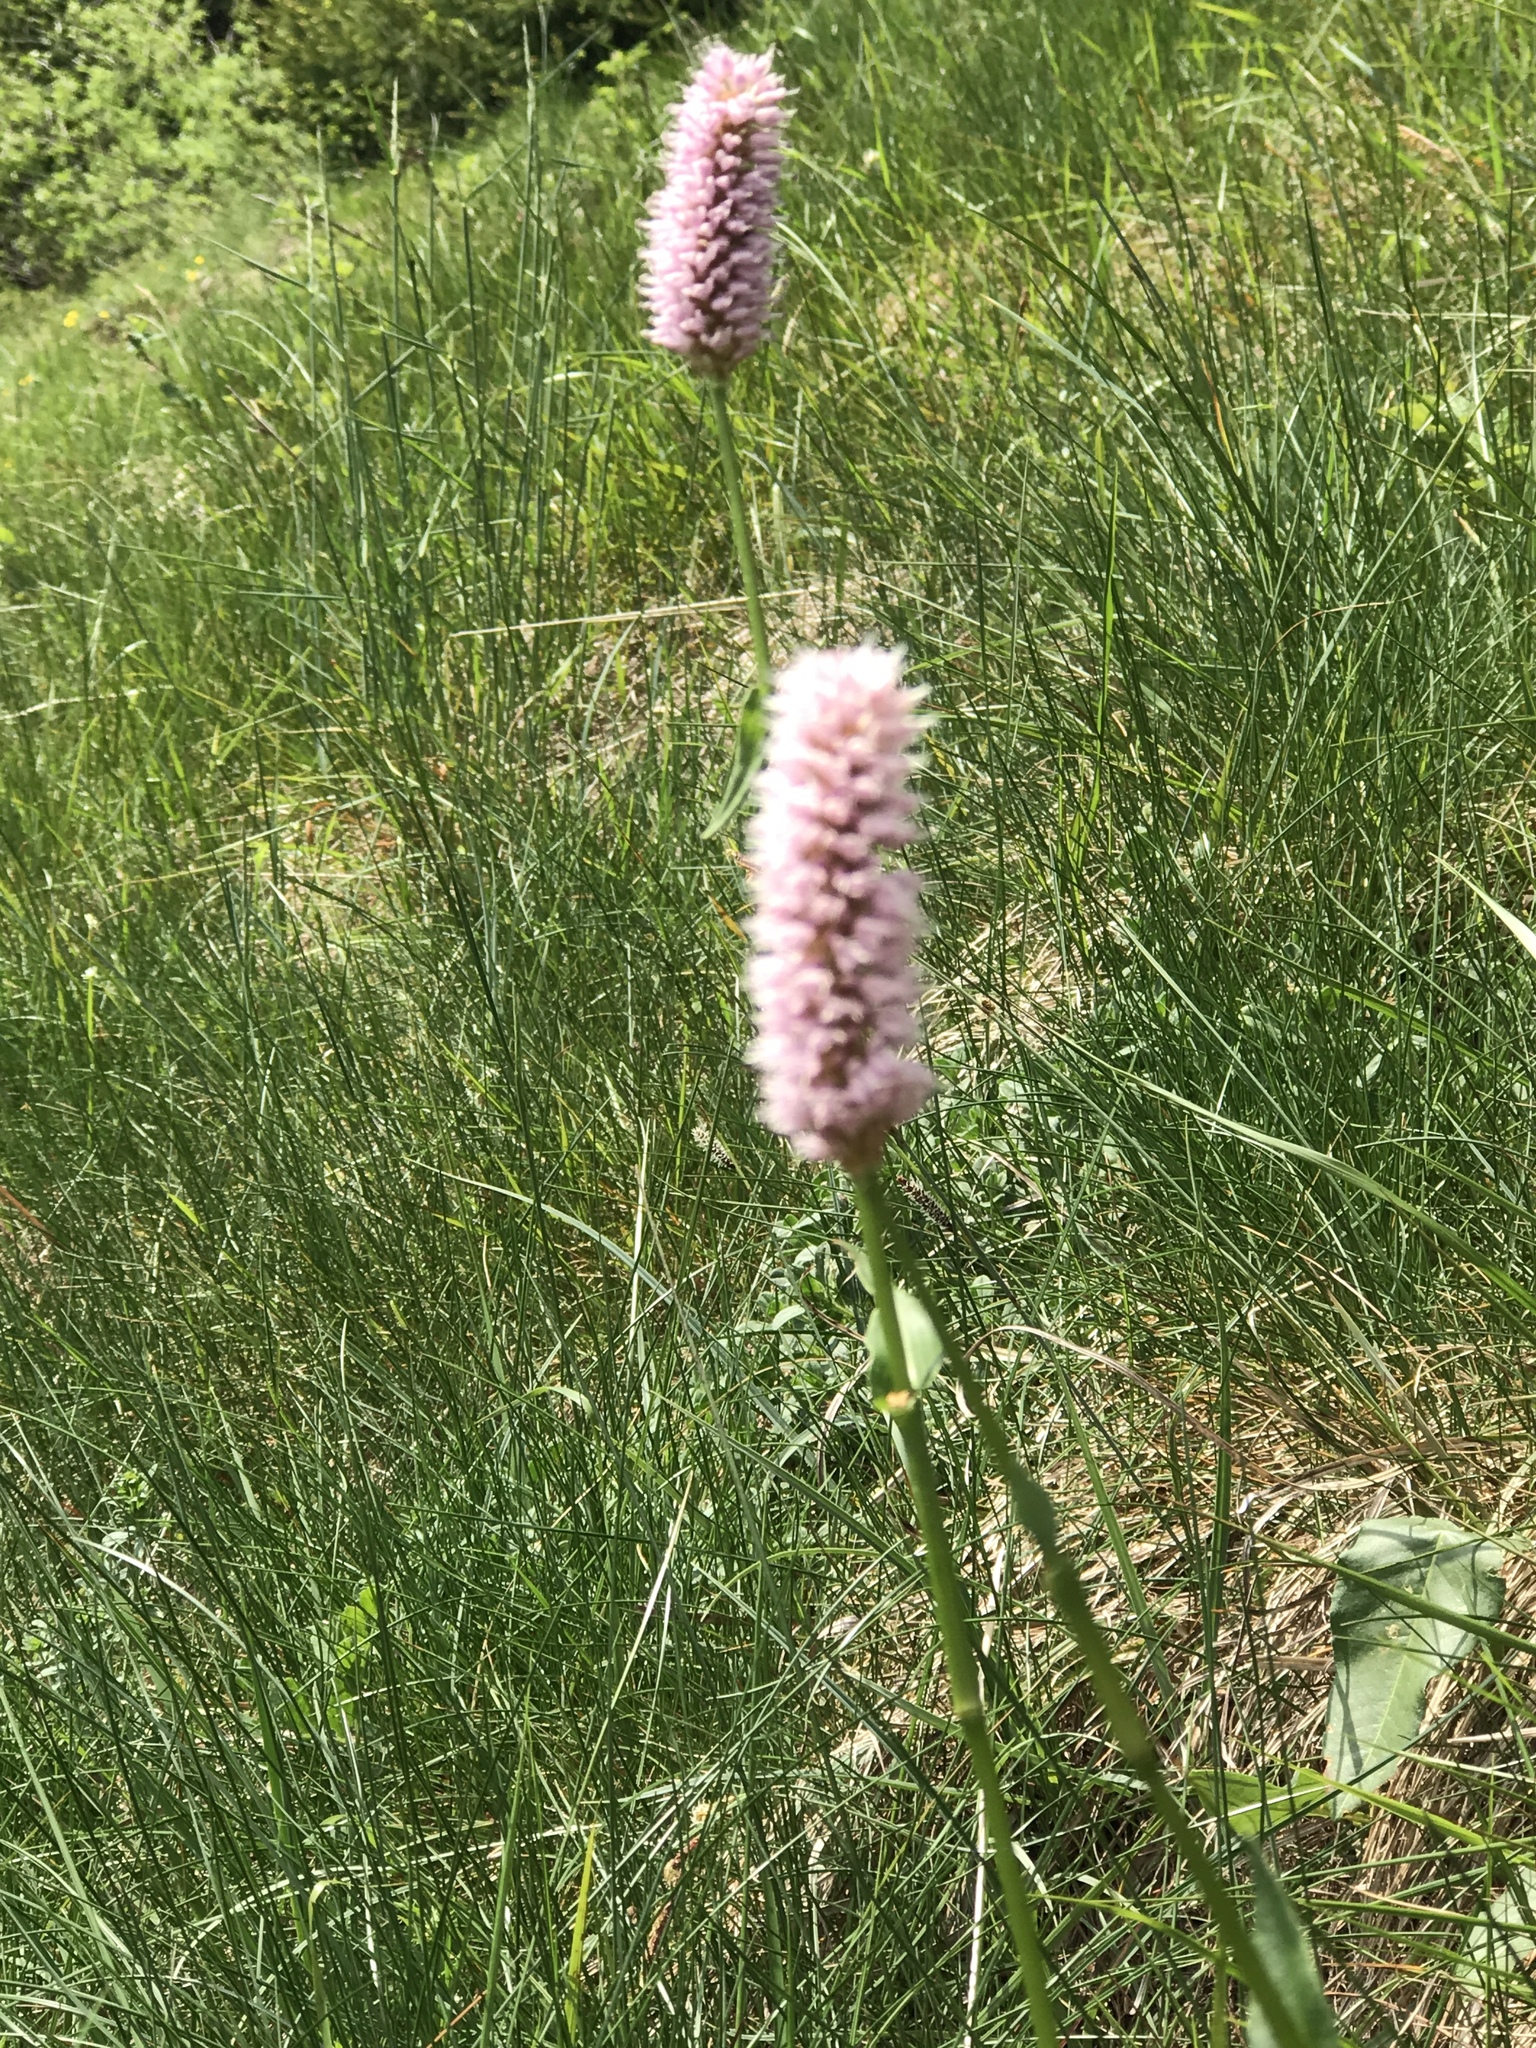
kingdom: Plantae
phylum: Tracheophyta
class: Magnoliopsida
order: Caryophyllales
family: Polygonaceae
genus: Bistorta
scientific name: Bistorta officinalis
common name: Common bistort
